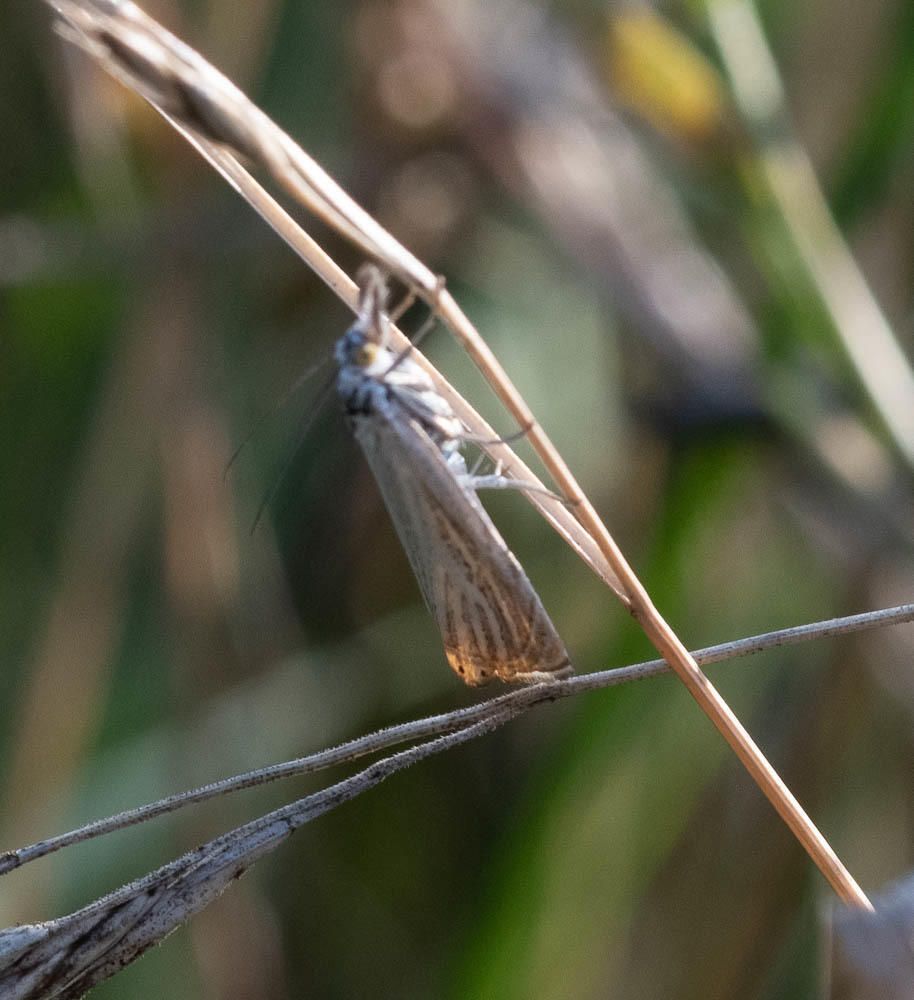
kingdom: Animalia
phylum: Arthropoda
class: Insecta
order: Lepidoptera
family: Crambidae
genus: Chrysoteuchia
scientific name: Chrysoteuchia culmella
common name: Garden grass-veneer
